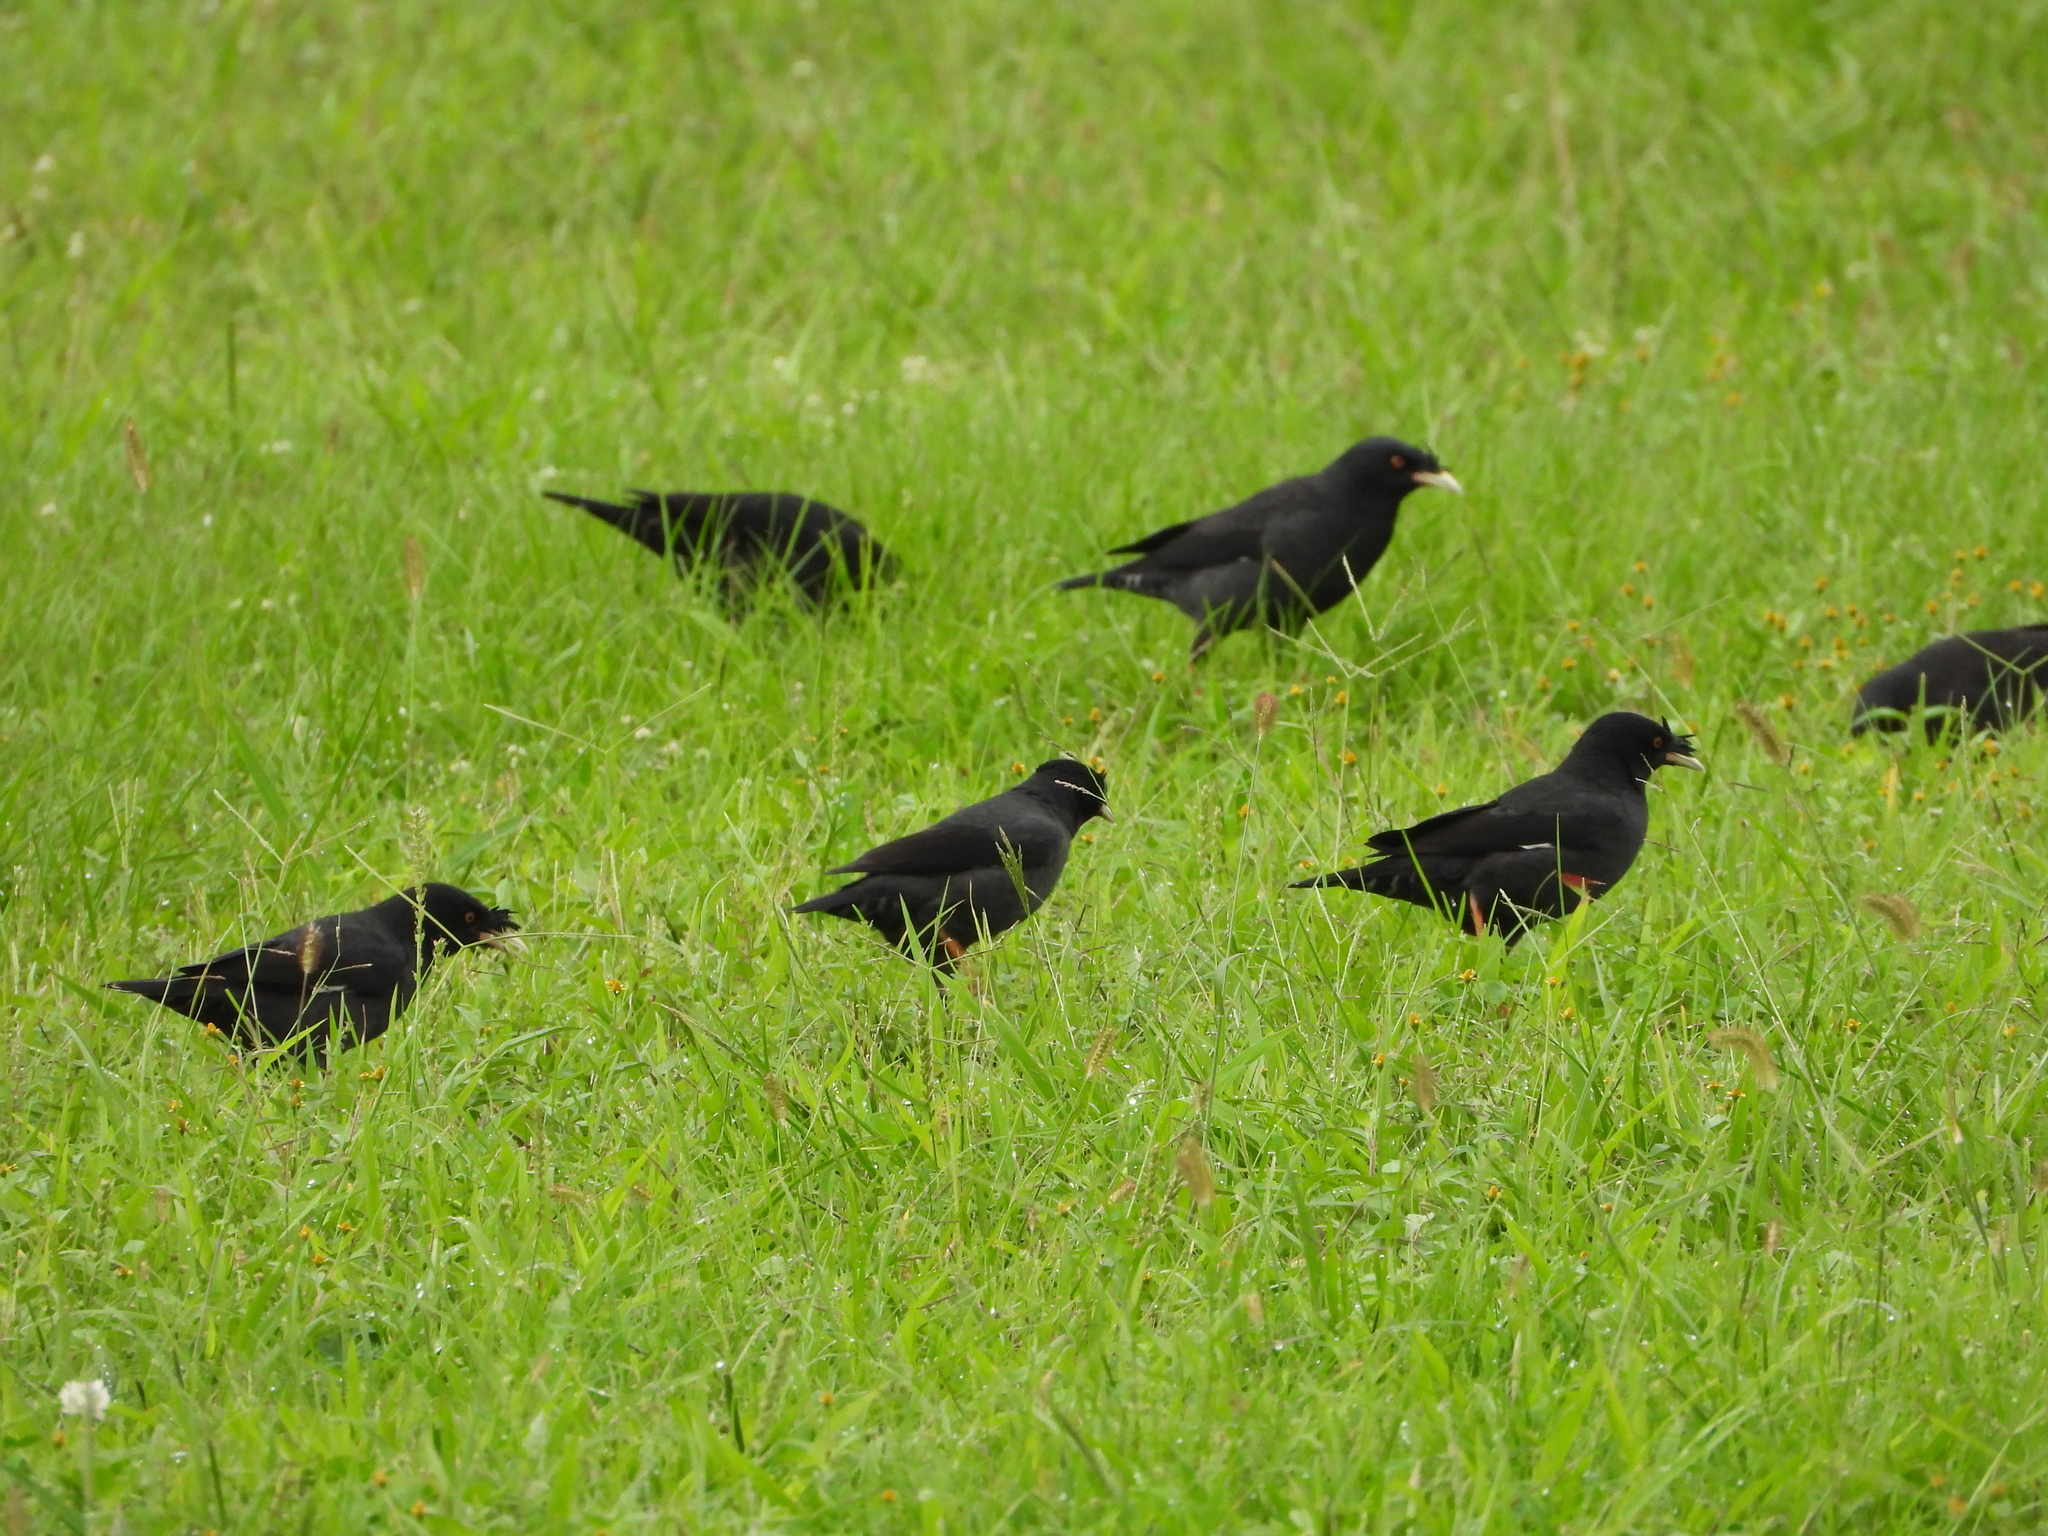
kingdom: Animalia
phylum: Chordata
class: Aves
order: Passeriformes
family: Sturnidae
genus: Acridotheres
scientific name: Acridotheres cristatellus
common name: Crested myna
